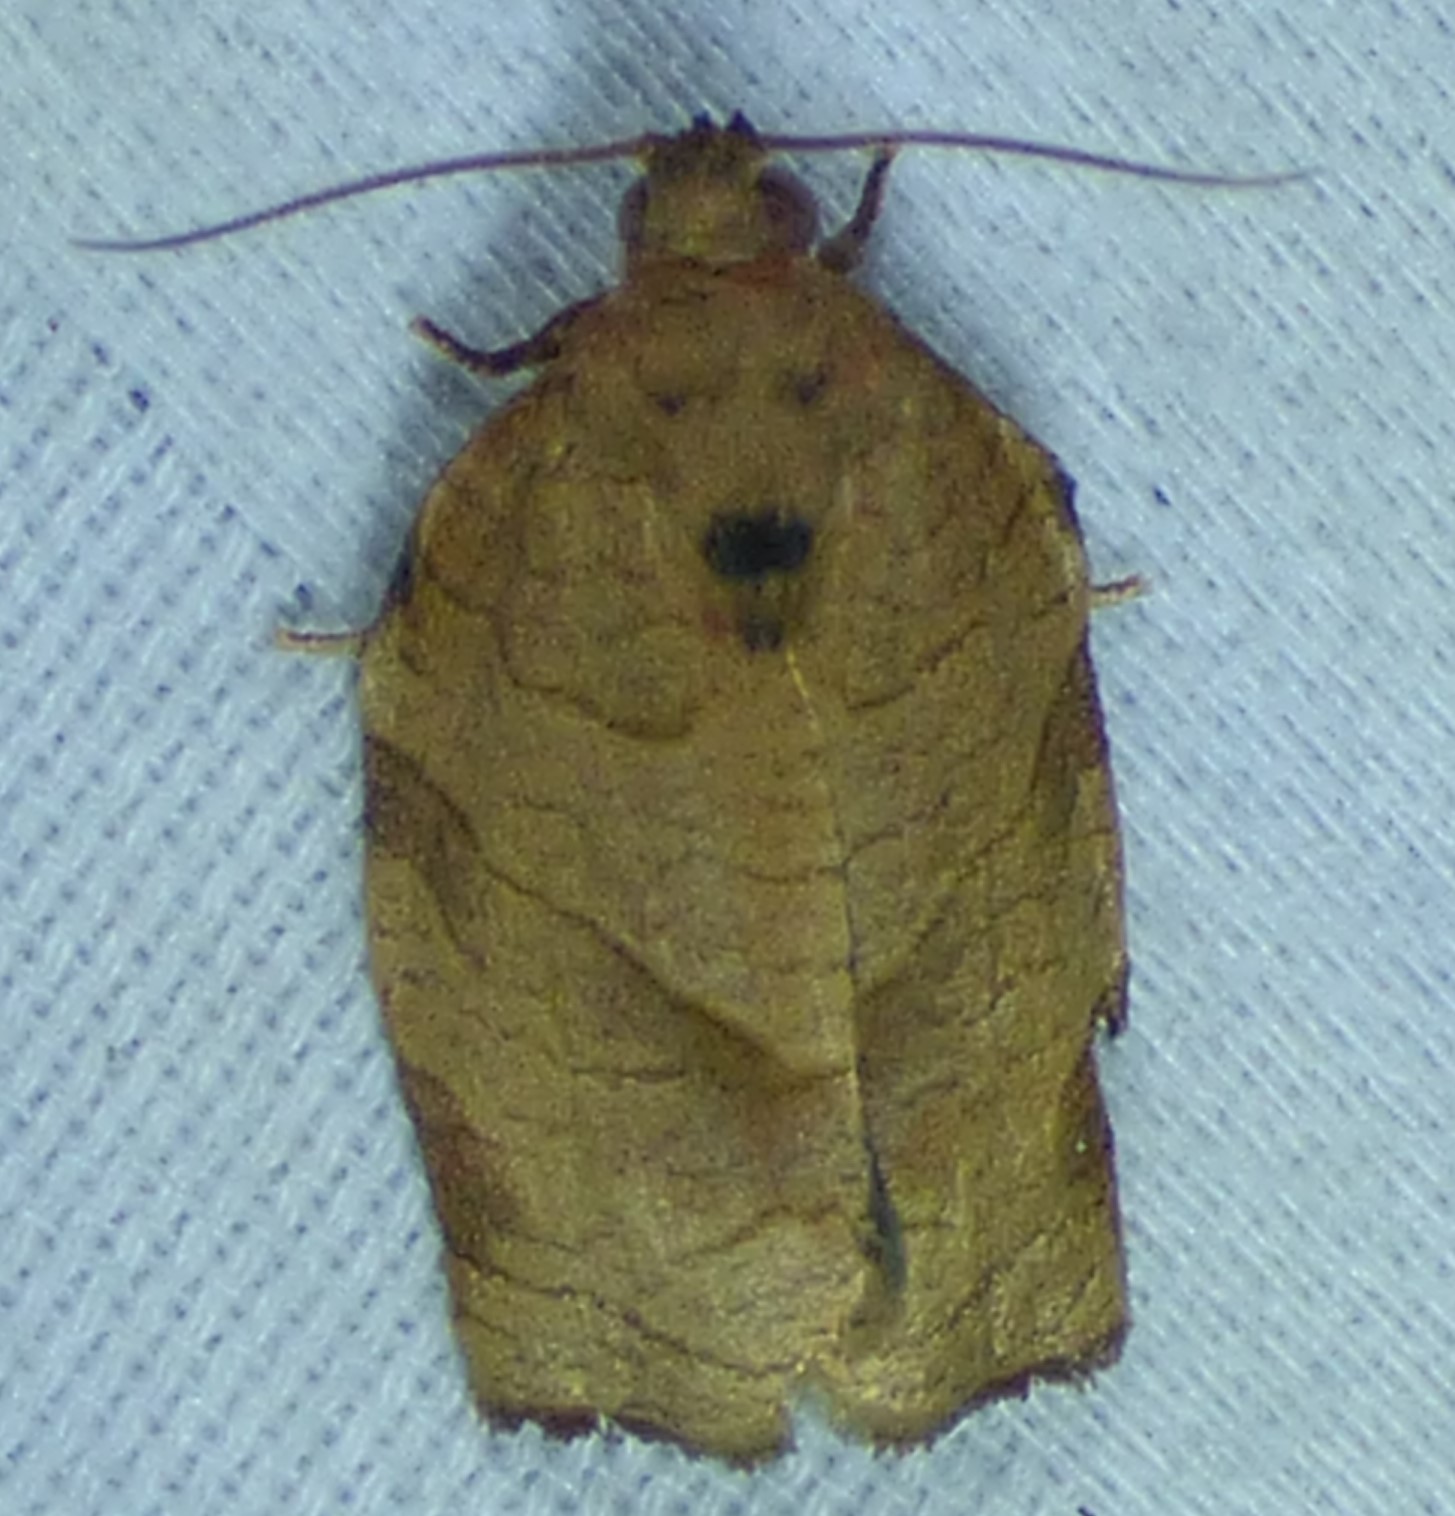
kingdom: Animalia
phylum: Arthropoda
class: Insecta
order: Lepidoptera
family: Tortricidae
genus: Choristoneura
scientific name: Choristoneura rosaceana
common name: Oblique-banded leafroller moth
